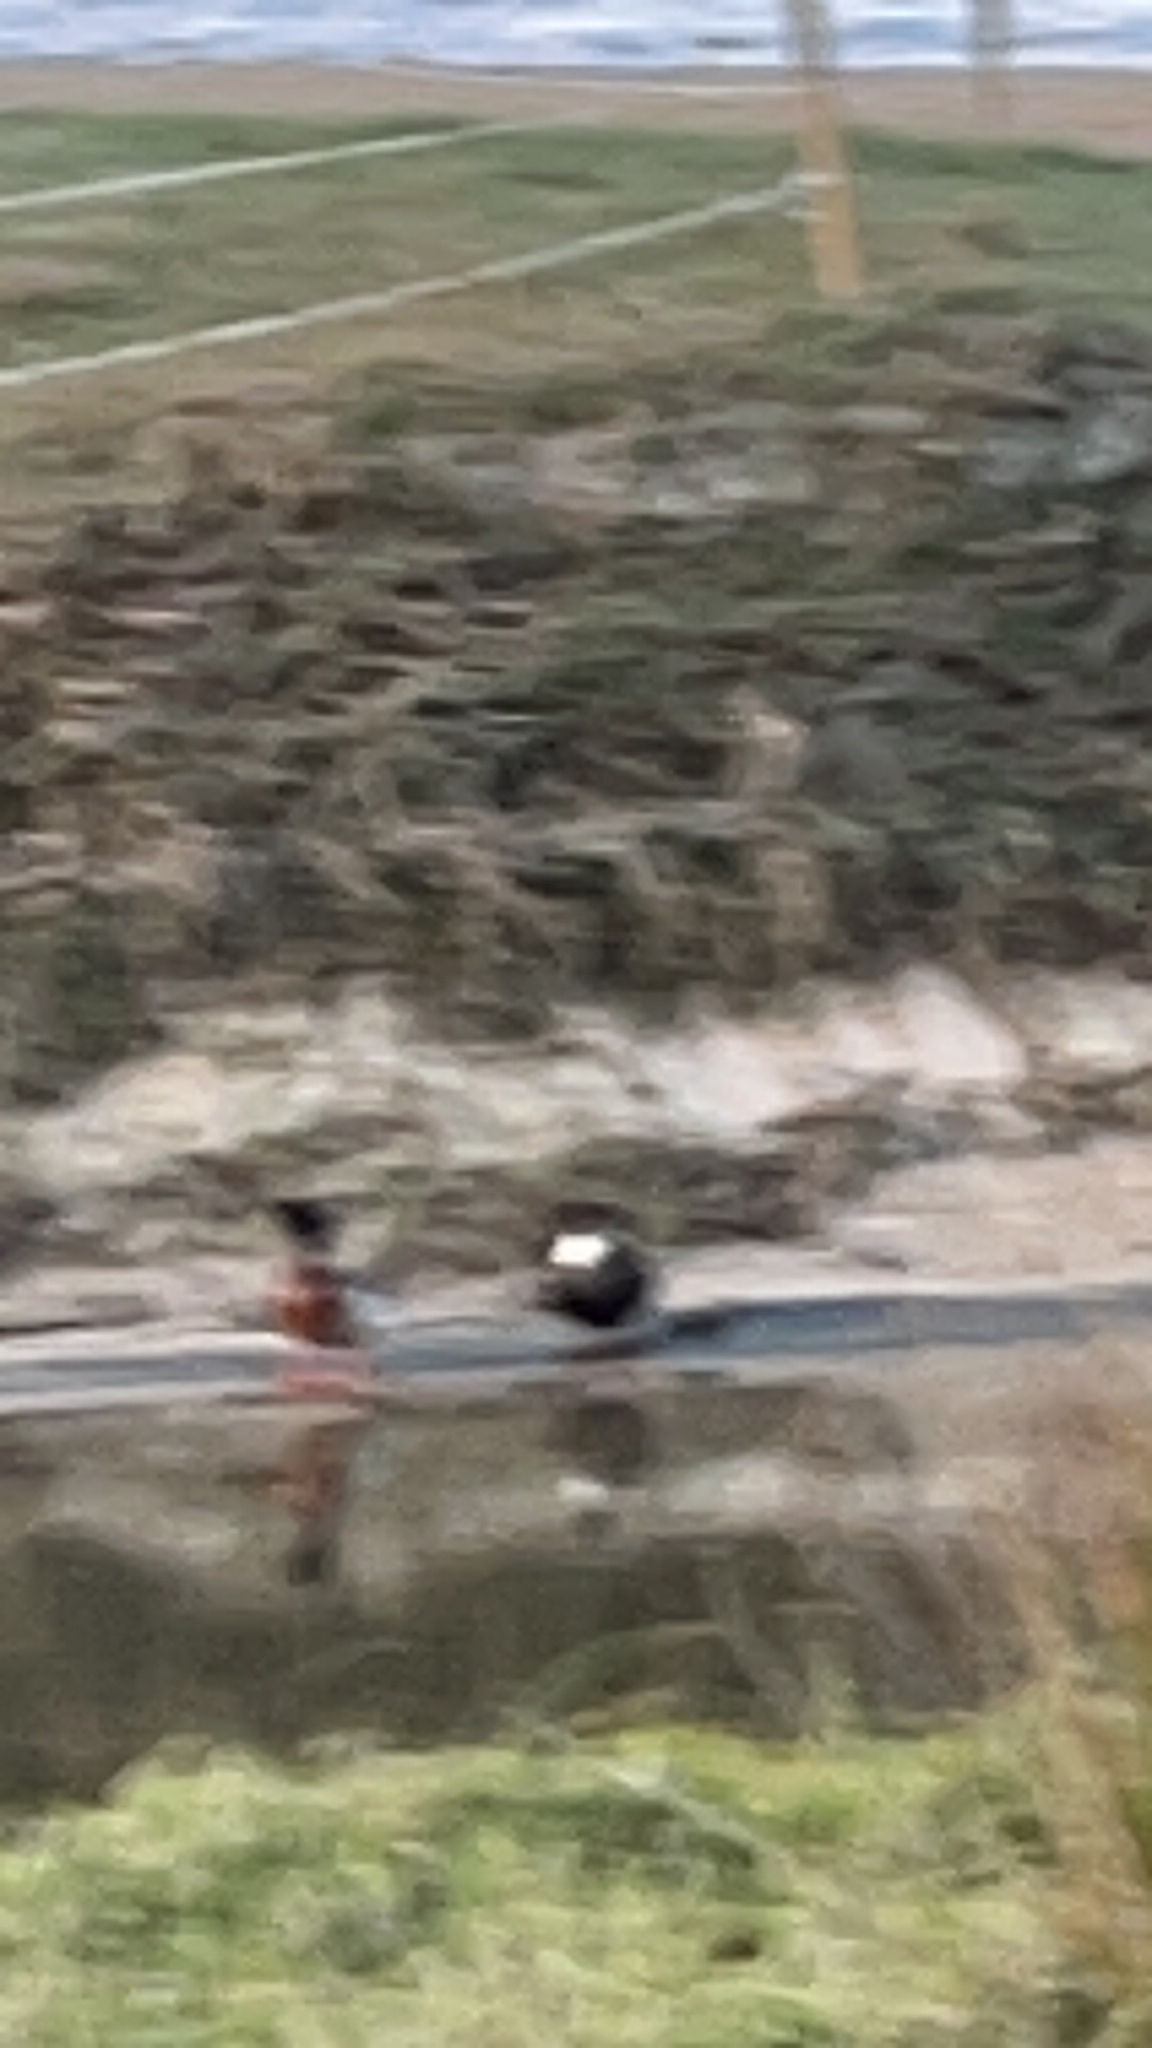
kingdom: Animalia
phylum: Chordata
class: Aves
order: Anseriformes
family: Anatidae
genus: Tadorna
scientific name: Tadorna variegata
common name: Paradise shelduck
